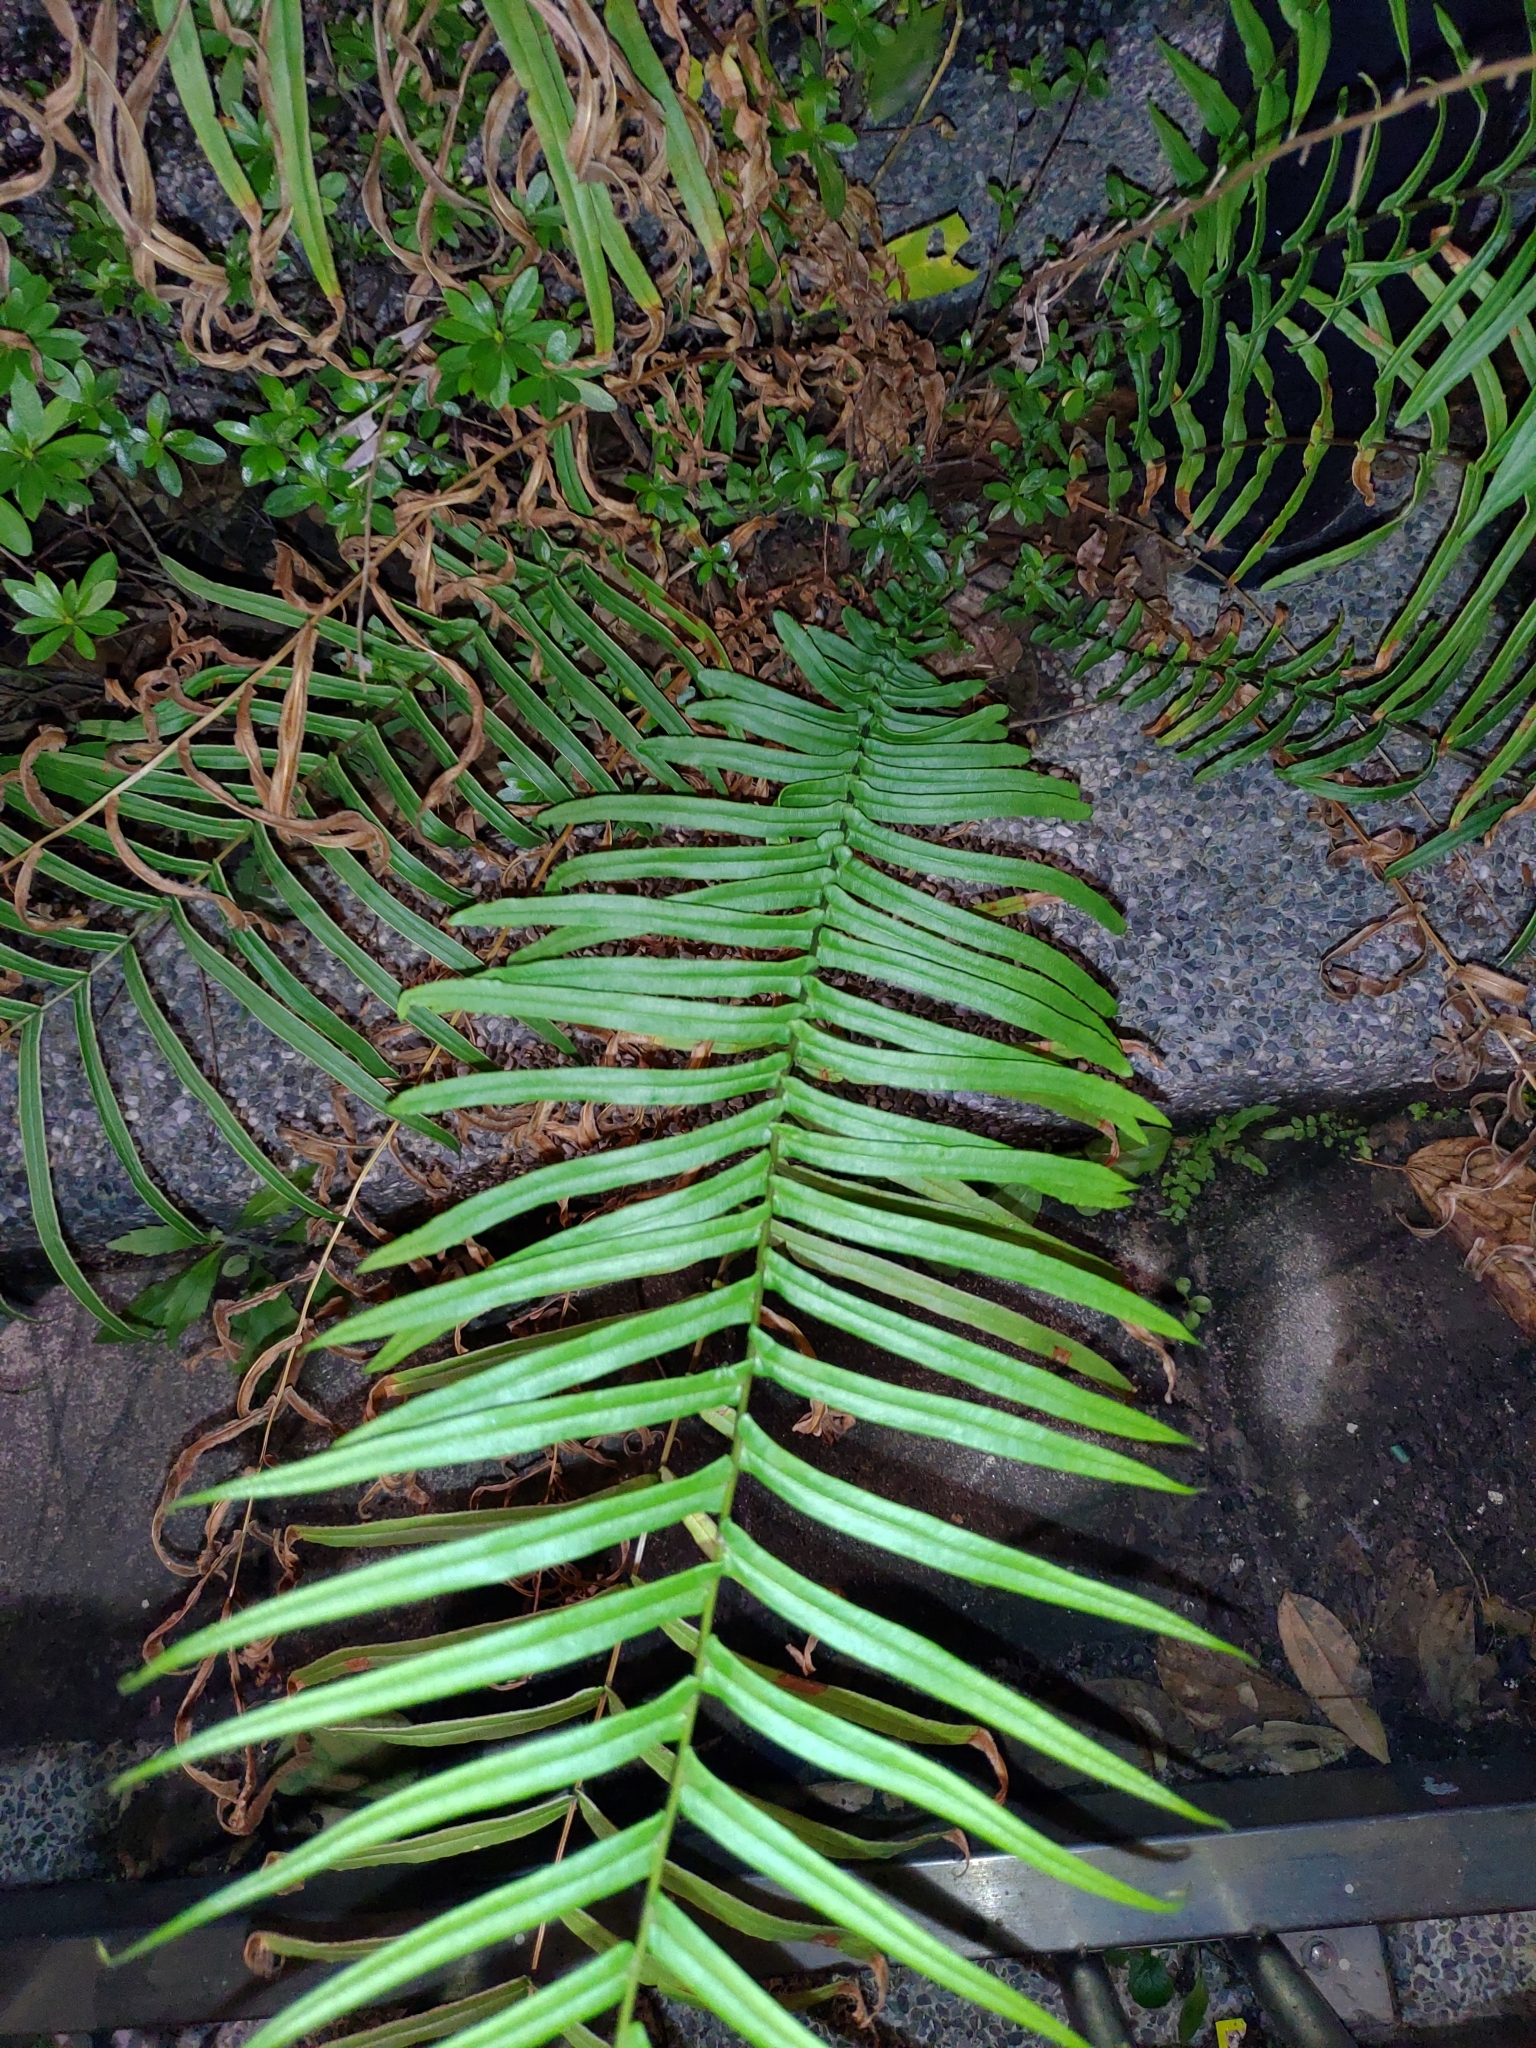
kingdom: Plantae
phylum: Tracheophyta
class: Polypodiopsida
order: Polypodiales
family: Pteridaceae
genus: Pteris
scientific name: Pteris vittata
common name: Ladder brake
